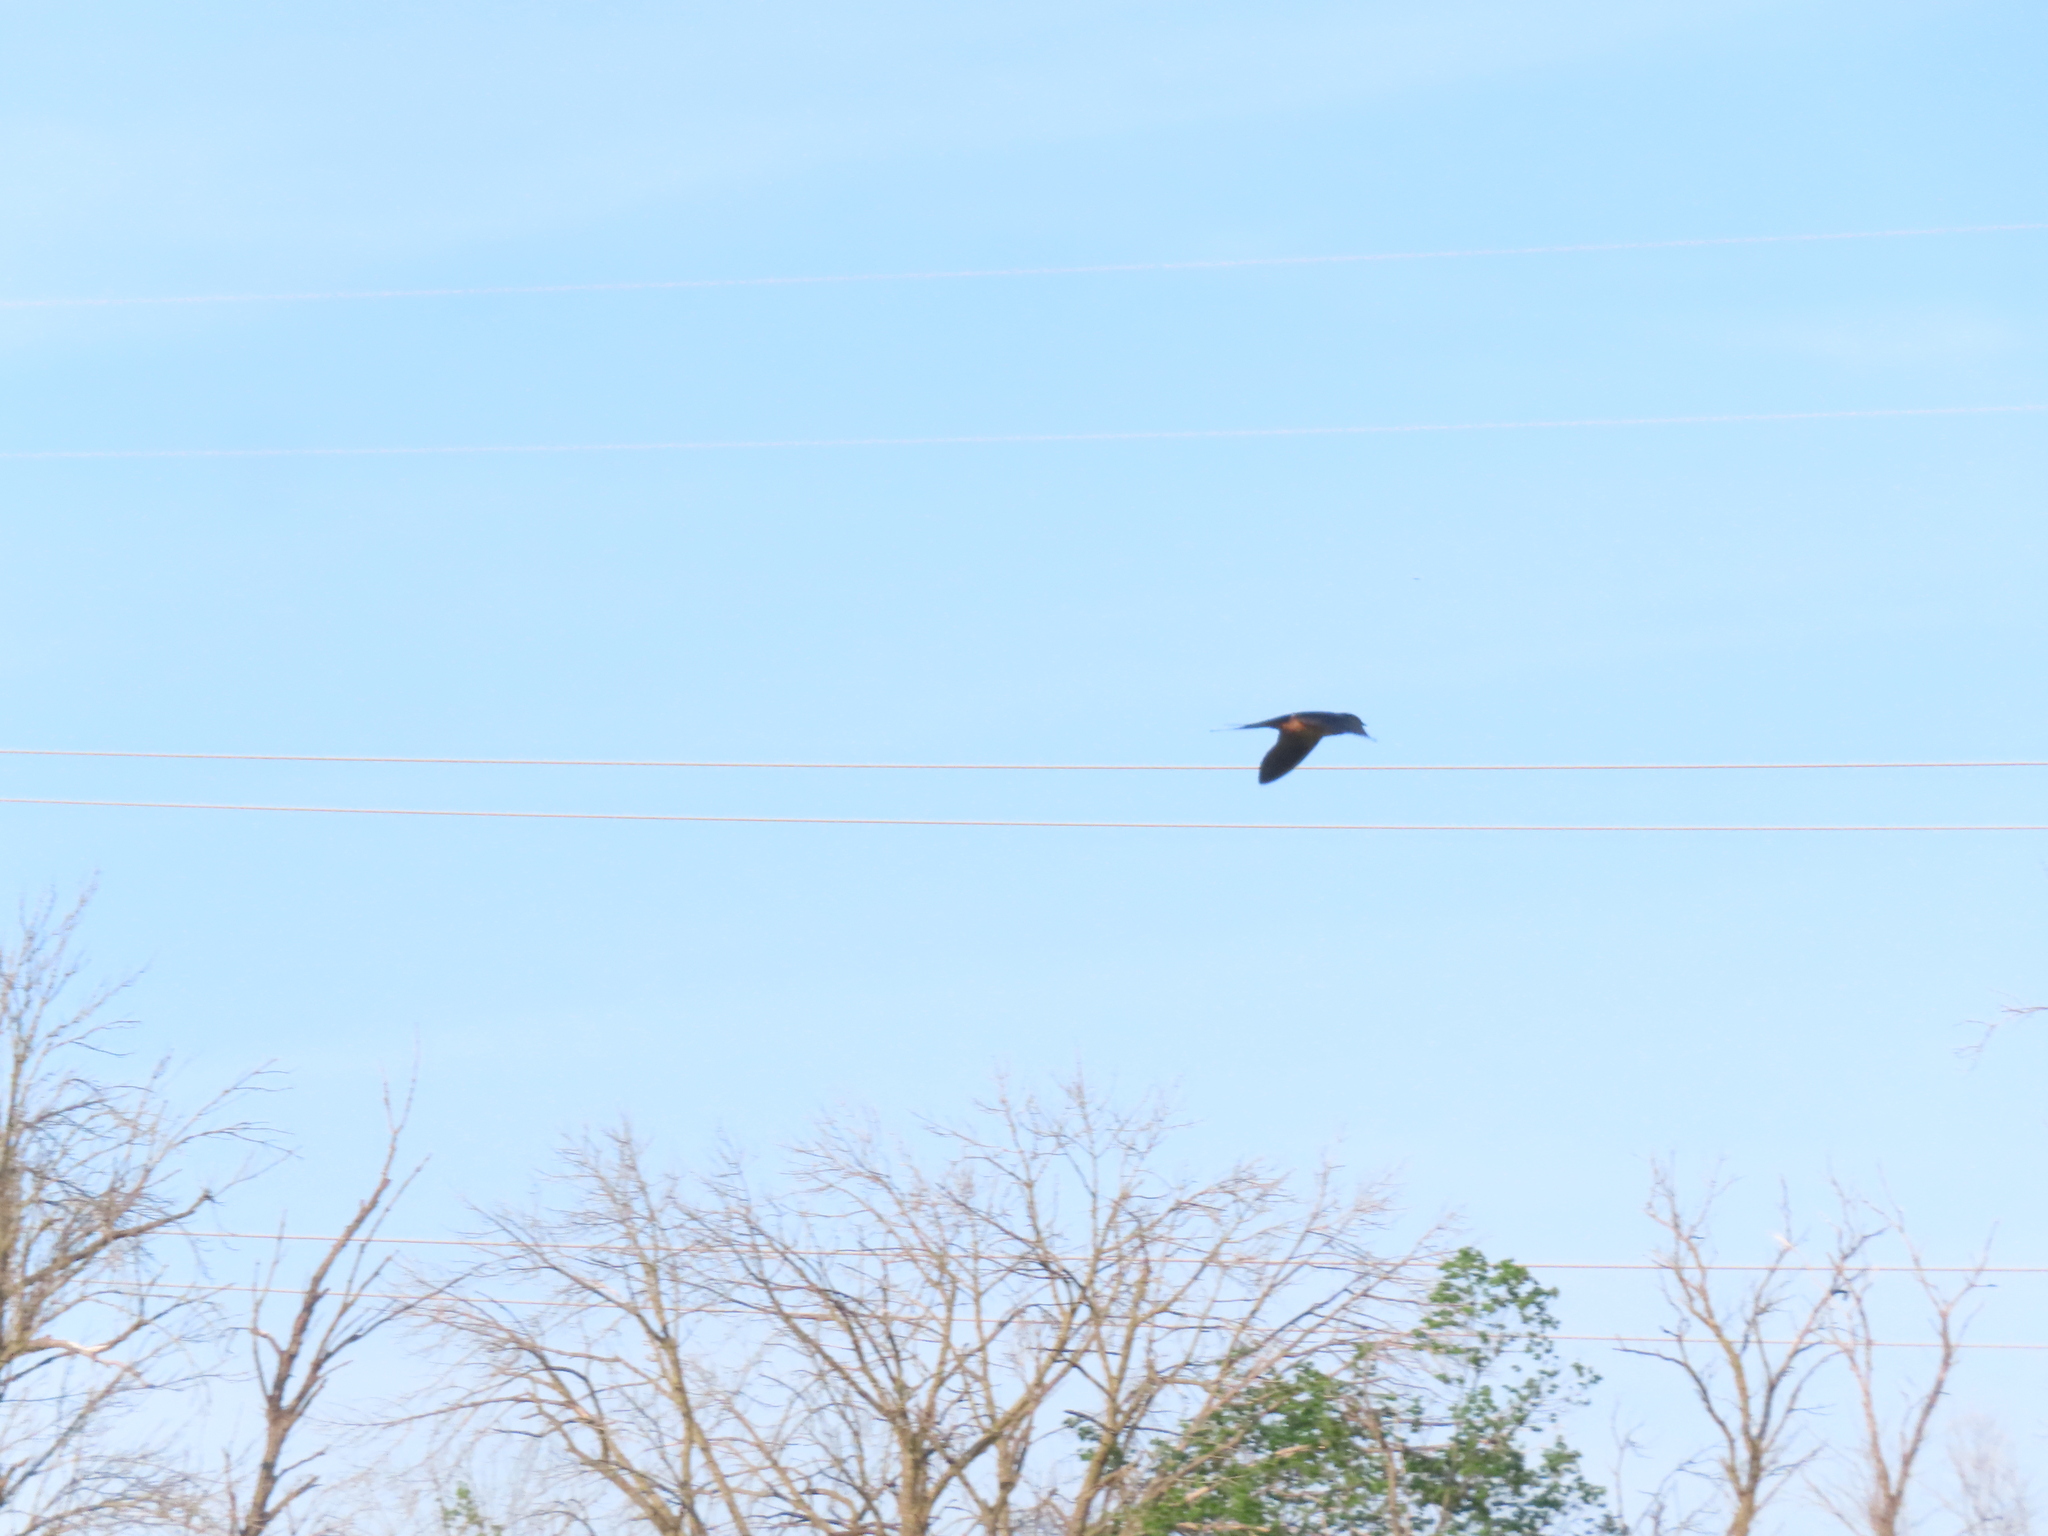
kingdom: Animalia
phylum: Chordata
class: Aves
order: Passeriformes
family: Hirundinidae
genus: Hirundo
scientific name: Hirundo rustica
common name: Barn swallow
